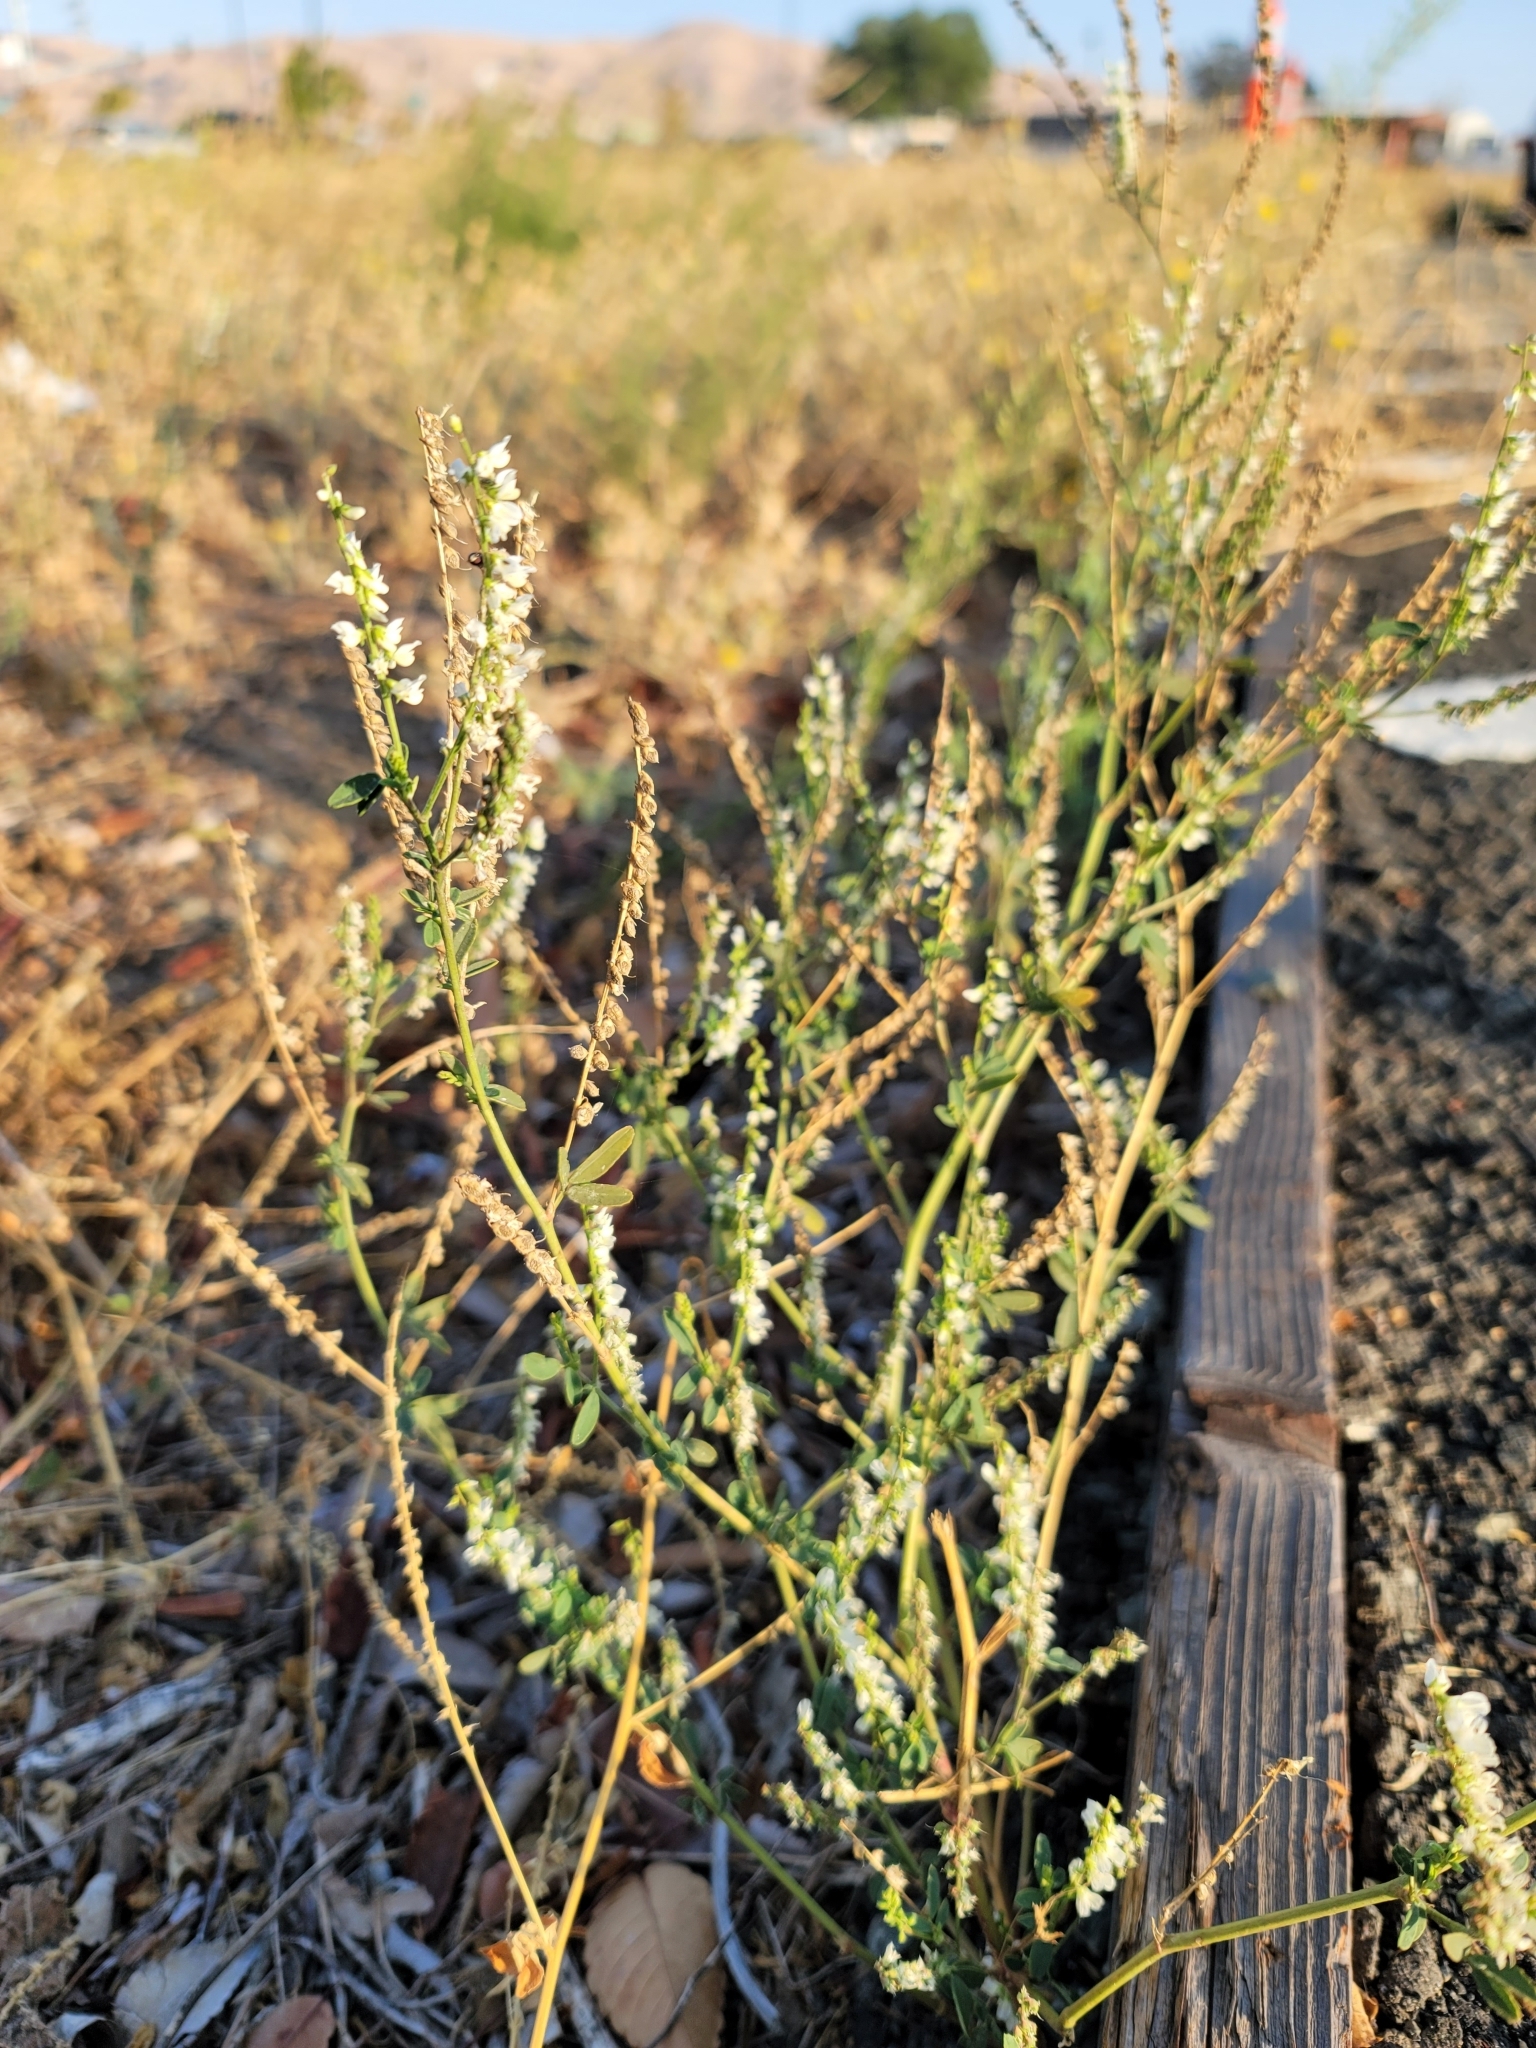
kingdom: Plantae
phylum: Tracheophyta
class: Magnoliopsida
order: Fabales
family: Fabaceae
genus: Melilotus
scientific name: Melilotus albus
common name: White melilot
